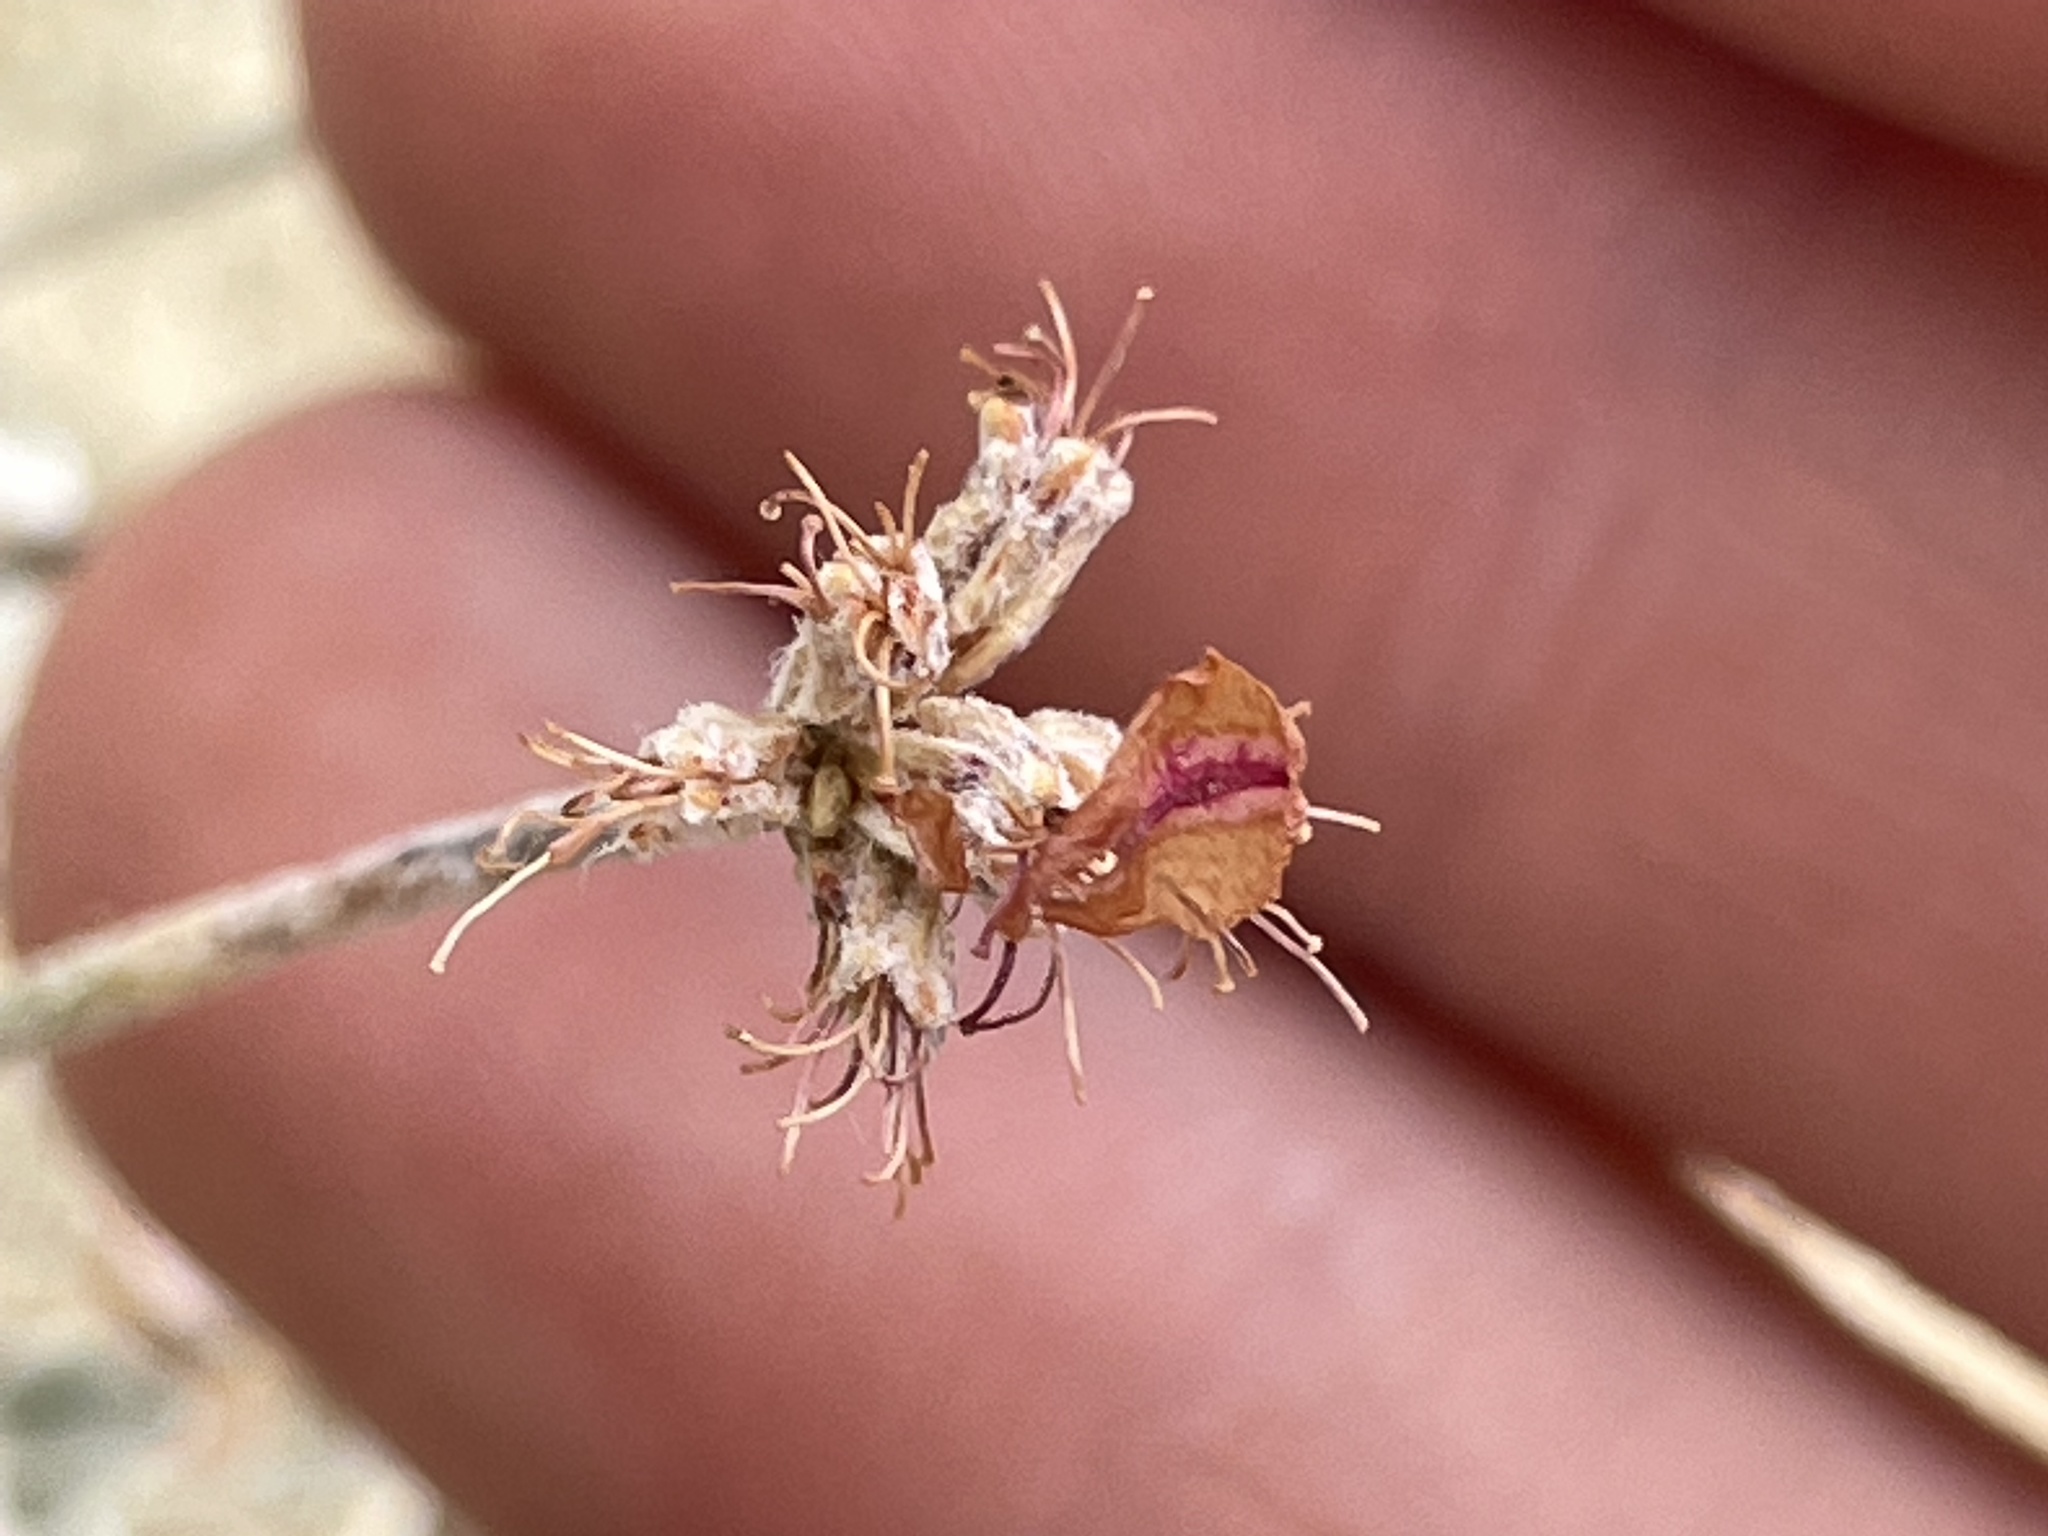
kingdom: Plantae
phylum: Tracheophyta
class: Magnoliopsida
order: Caryophyllales
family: Polygonaceae
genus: Eriogonum
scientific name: Eriogonum ovalifolium
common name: Cushion buckwheat
